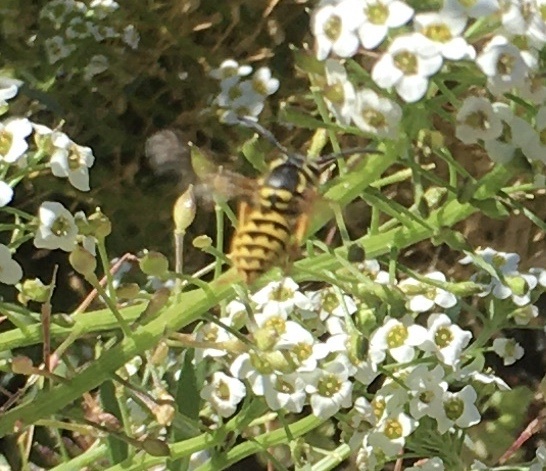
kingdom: Animalia
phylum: Arthropoda
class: Insecta
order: Hymenoptera
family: Vespidae
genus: Vespula
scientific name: Vespula pensylvanica
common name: Western yellowjacket
